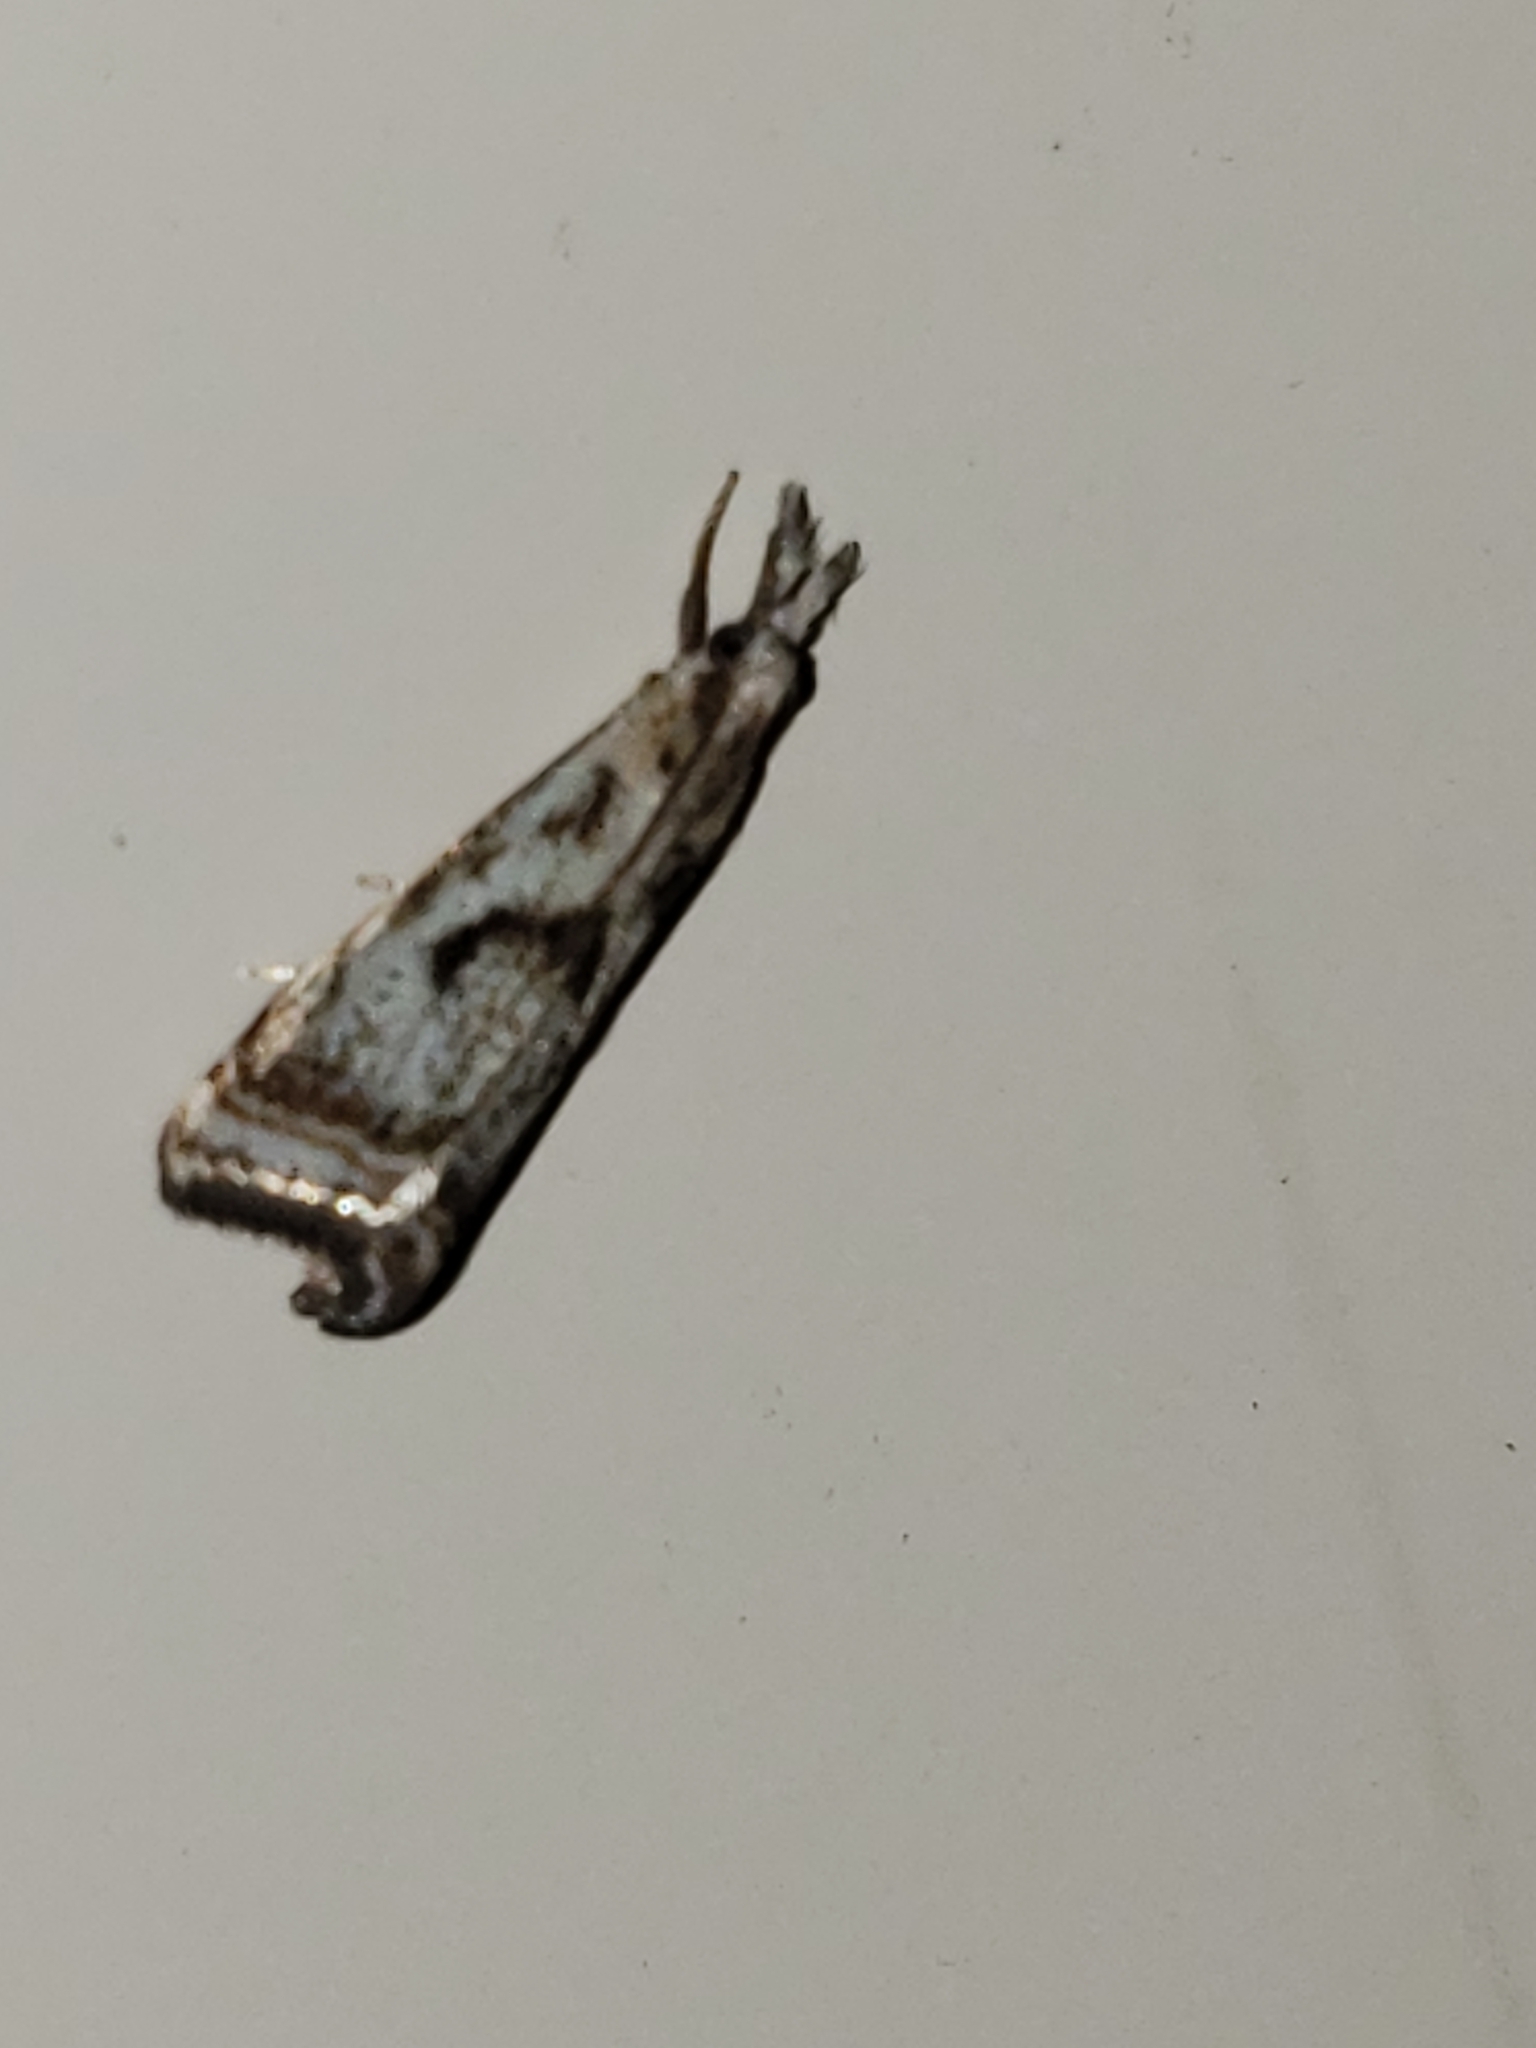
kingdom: Animalia
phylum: Arthropoda
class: Insecta
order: Lepidoptera
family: Crambidae
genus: Microcrambus
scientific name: Microcrambus elegans
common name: Elegant grass-veneer
